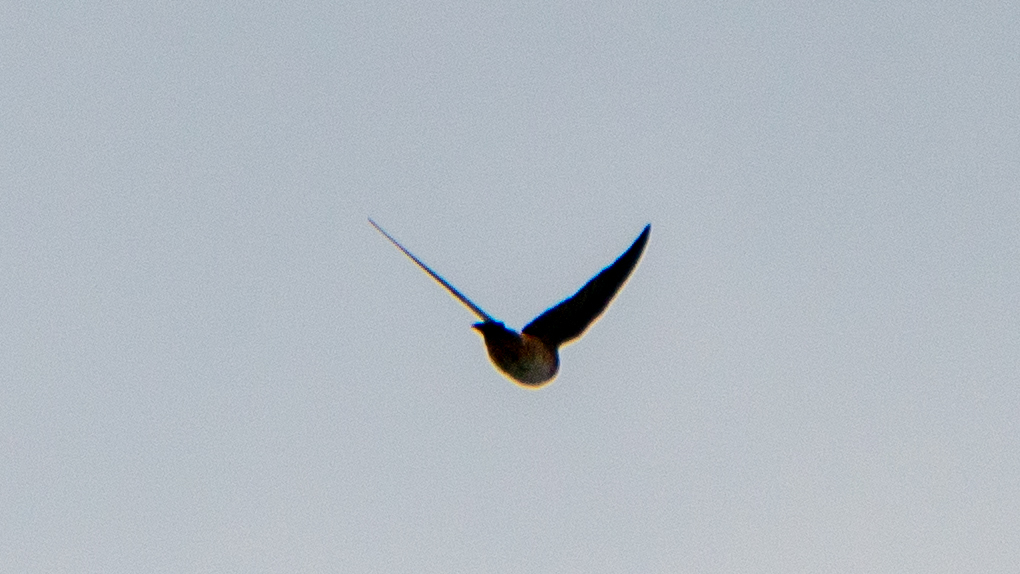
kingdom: Animalia
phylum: Chordata
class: Aves
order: Passeriformes
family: Hirundinidae
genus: Petrochelidon
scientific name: Petrochelidon pyrrhonota
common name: American cliff swallow
